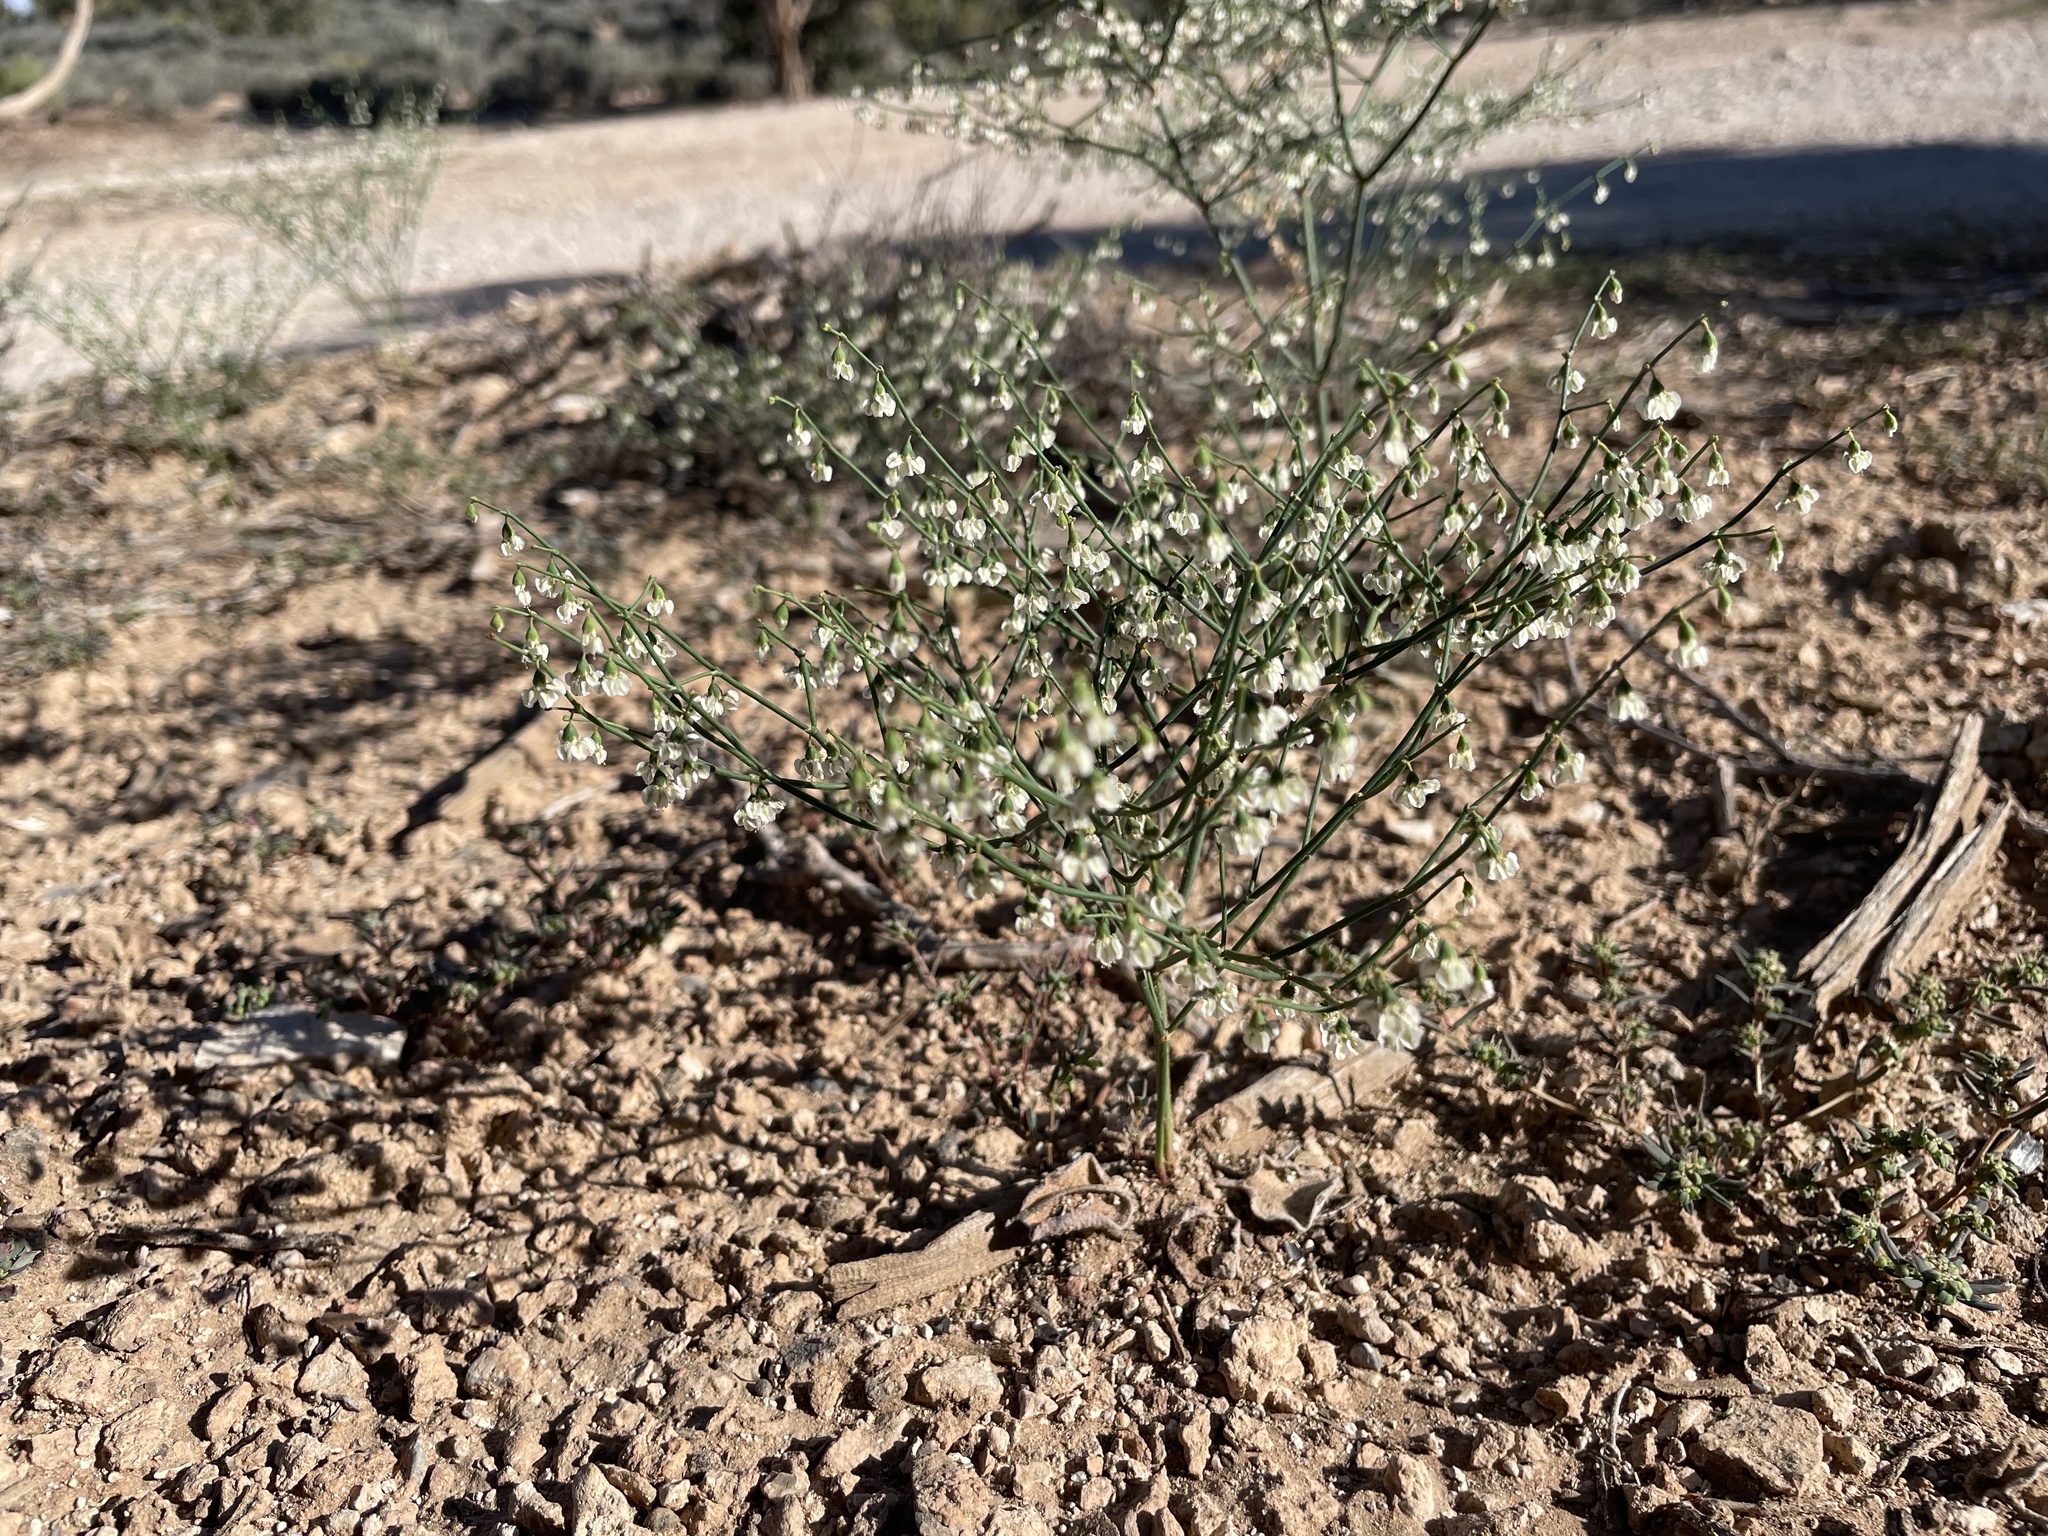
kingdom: Plantae
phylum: Tracheophyta
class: Magnoliopsida
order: Caryophyllales
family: Polygonaceae
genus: Eriogonum
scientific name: Eriogonum deflexum
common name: Skeleton-weed
